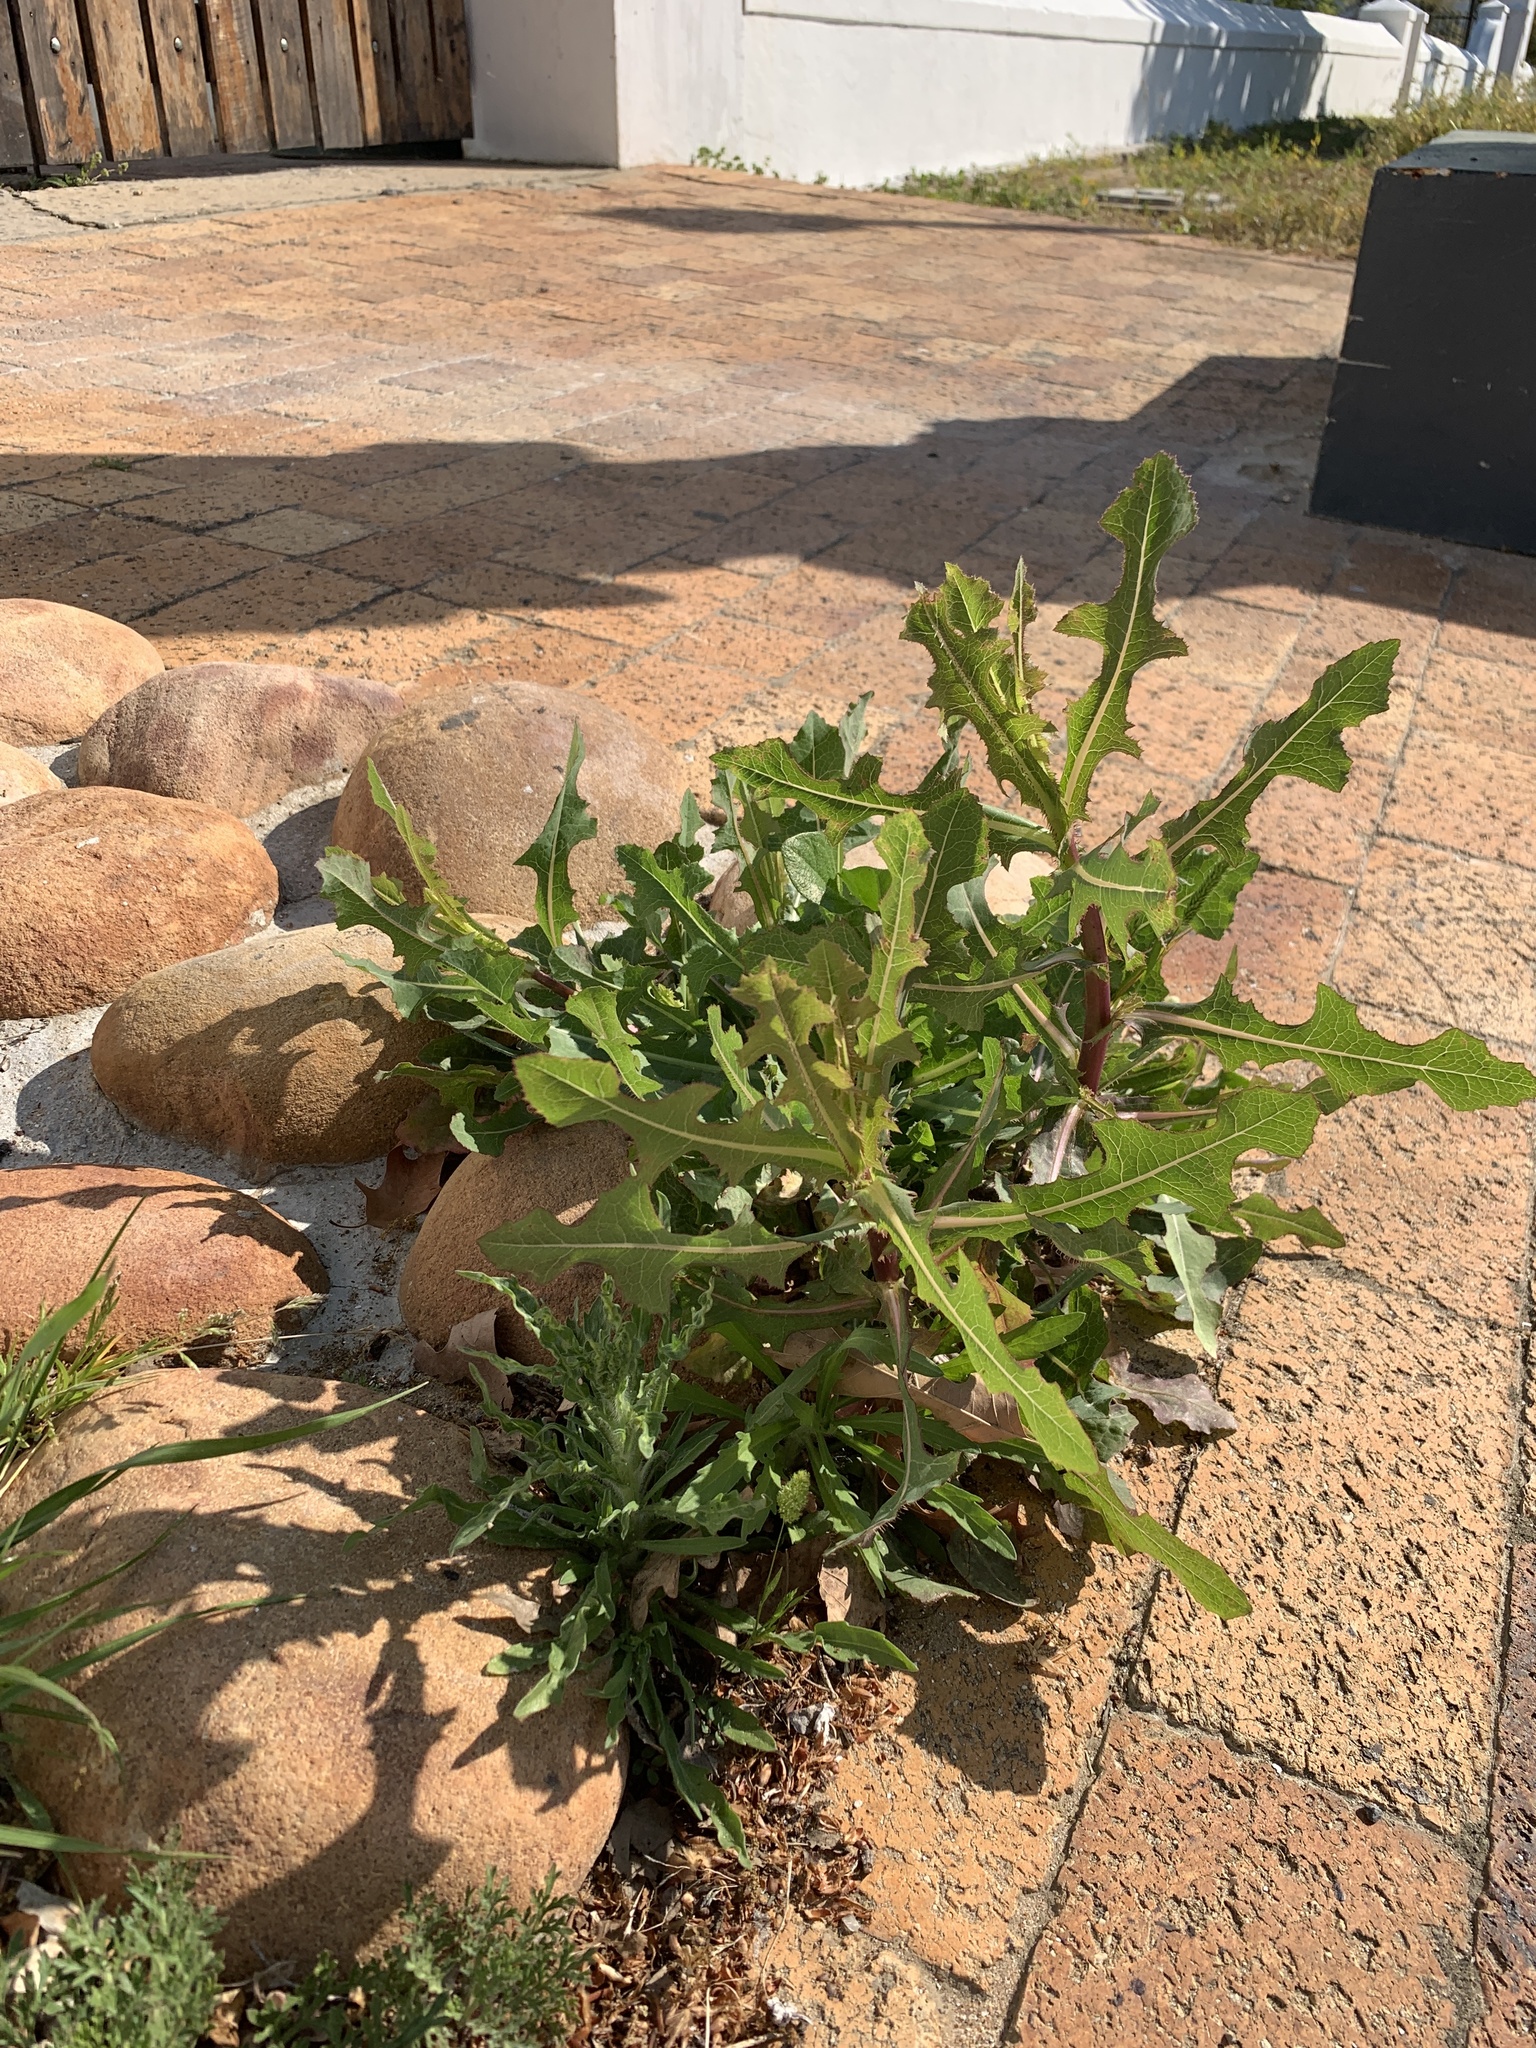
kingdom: Plantae
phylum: Tracheophyta
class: Magnoliopsida
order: Asterales
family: Asteraceae
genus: Lactuca
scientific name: Lactuca serriola
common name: Prickly lettuce
